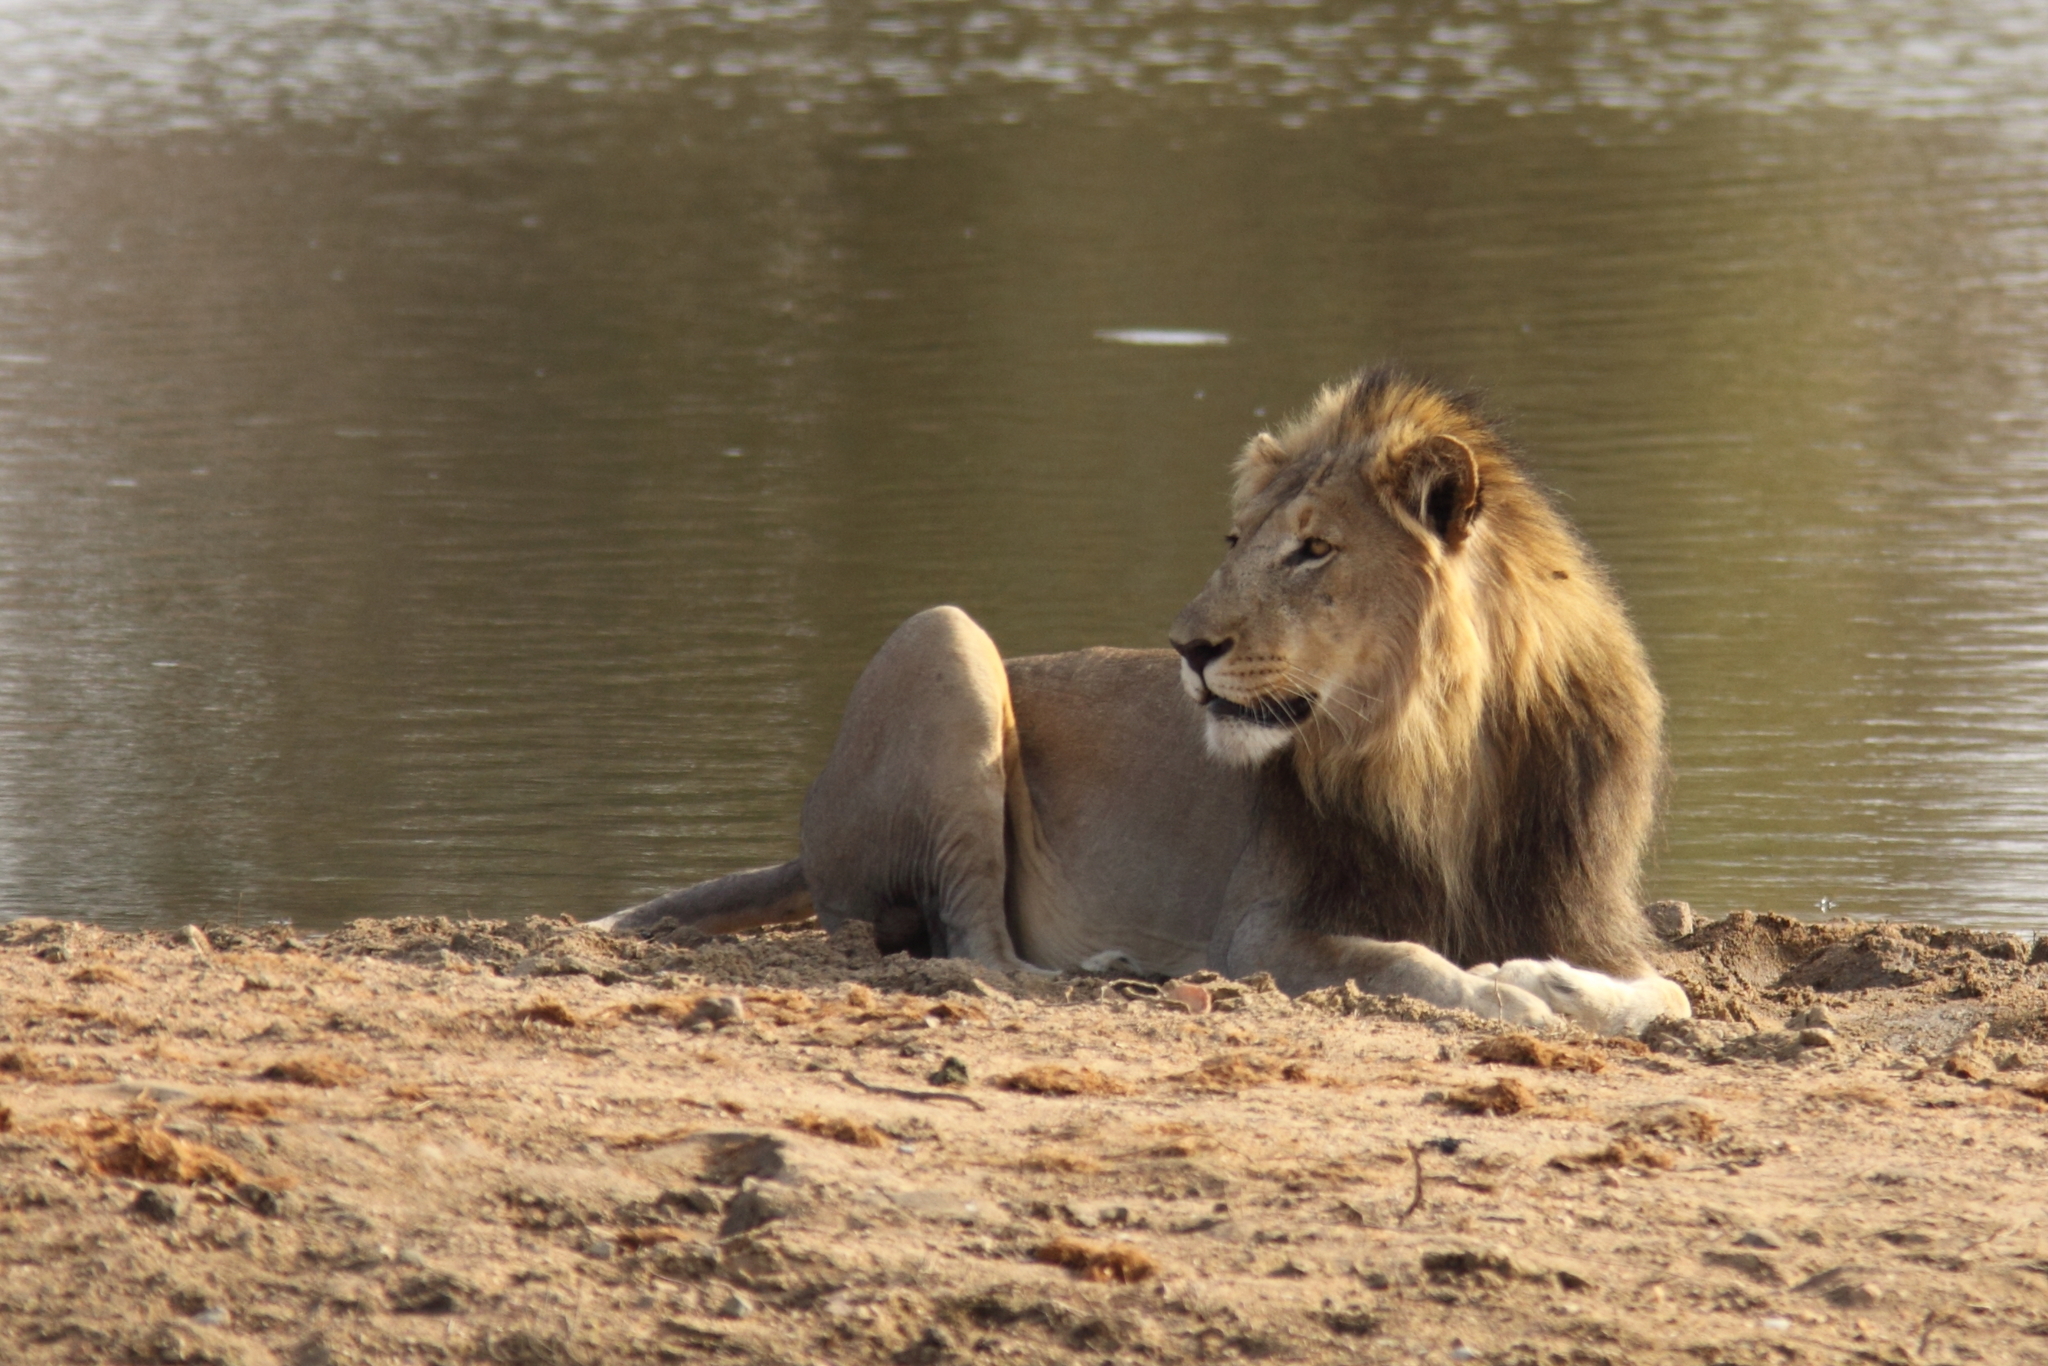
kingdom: Animalia
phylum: Chordata
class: Mammalia
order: Carnivora
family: Felidae
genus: Panthera
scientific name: Panthera leo
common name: Lion
